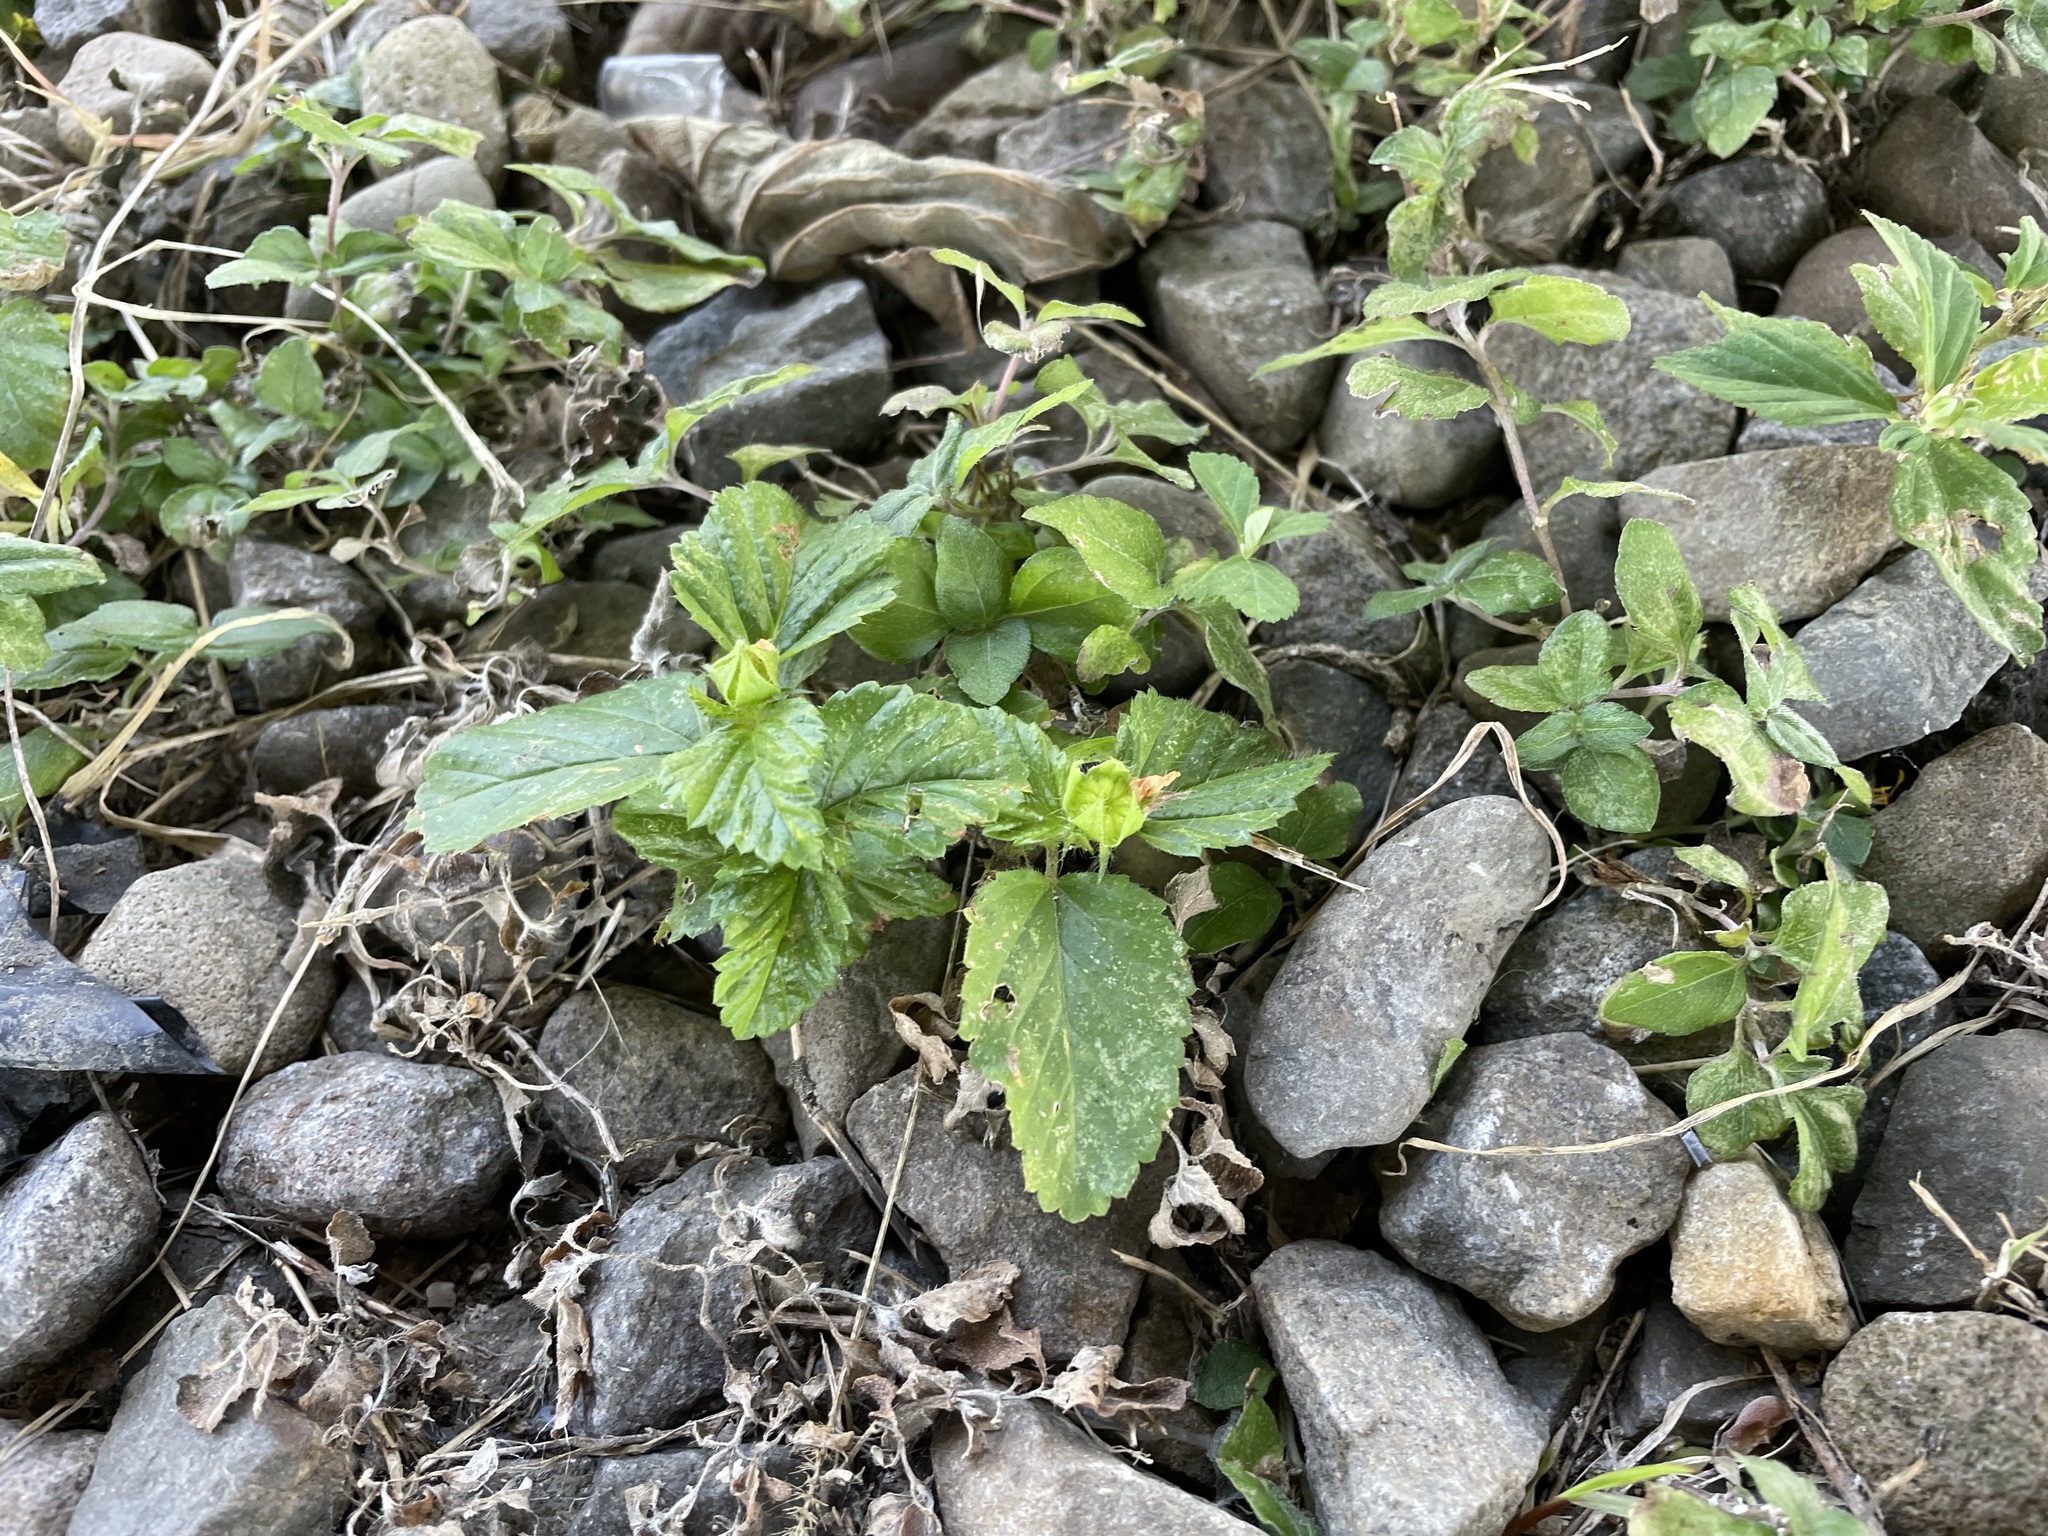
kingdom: Plantae
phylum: Tracheophyta
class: Magnoliopsida
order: Malvales
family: Malvaceae
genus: Malvastrum
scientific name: Malvastrum coromandelianum
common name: Threelobe false mallow
